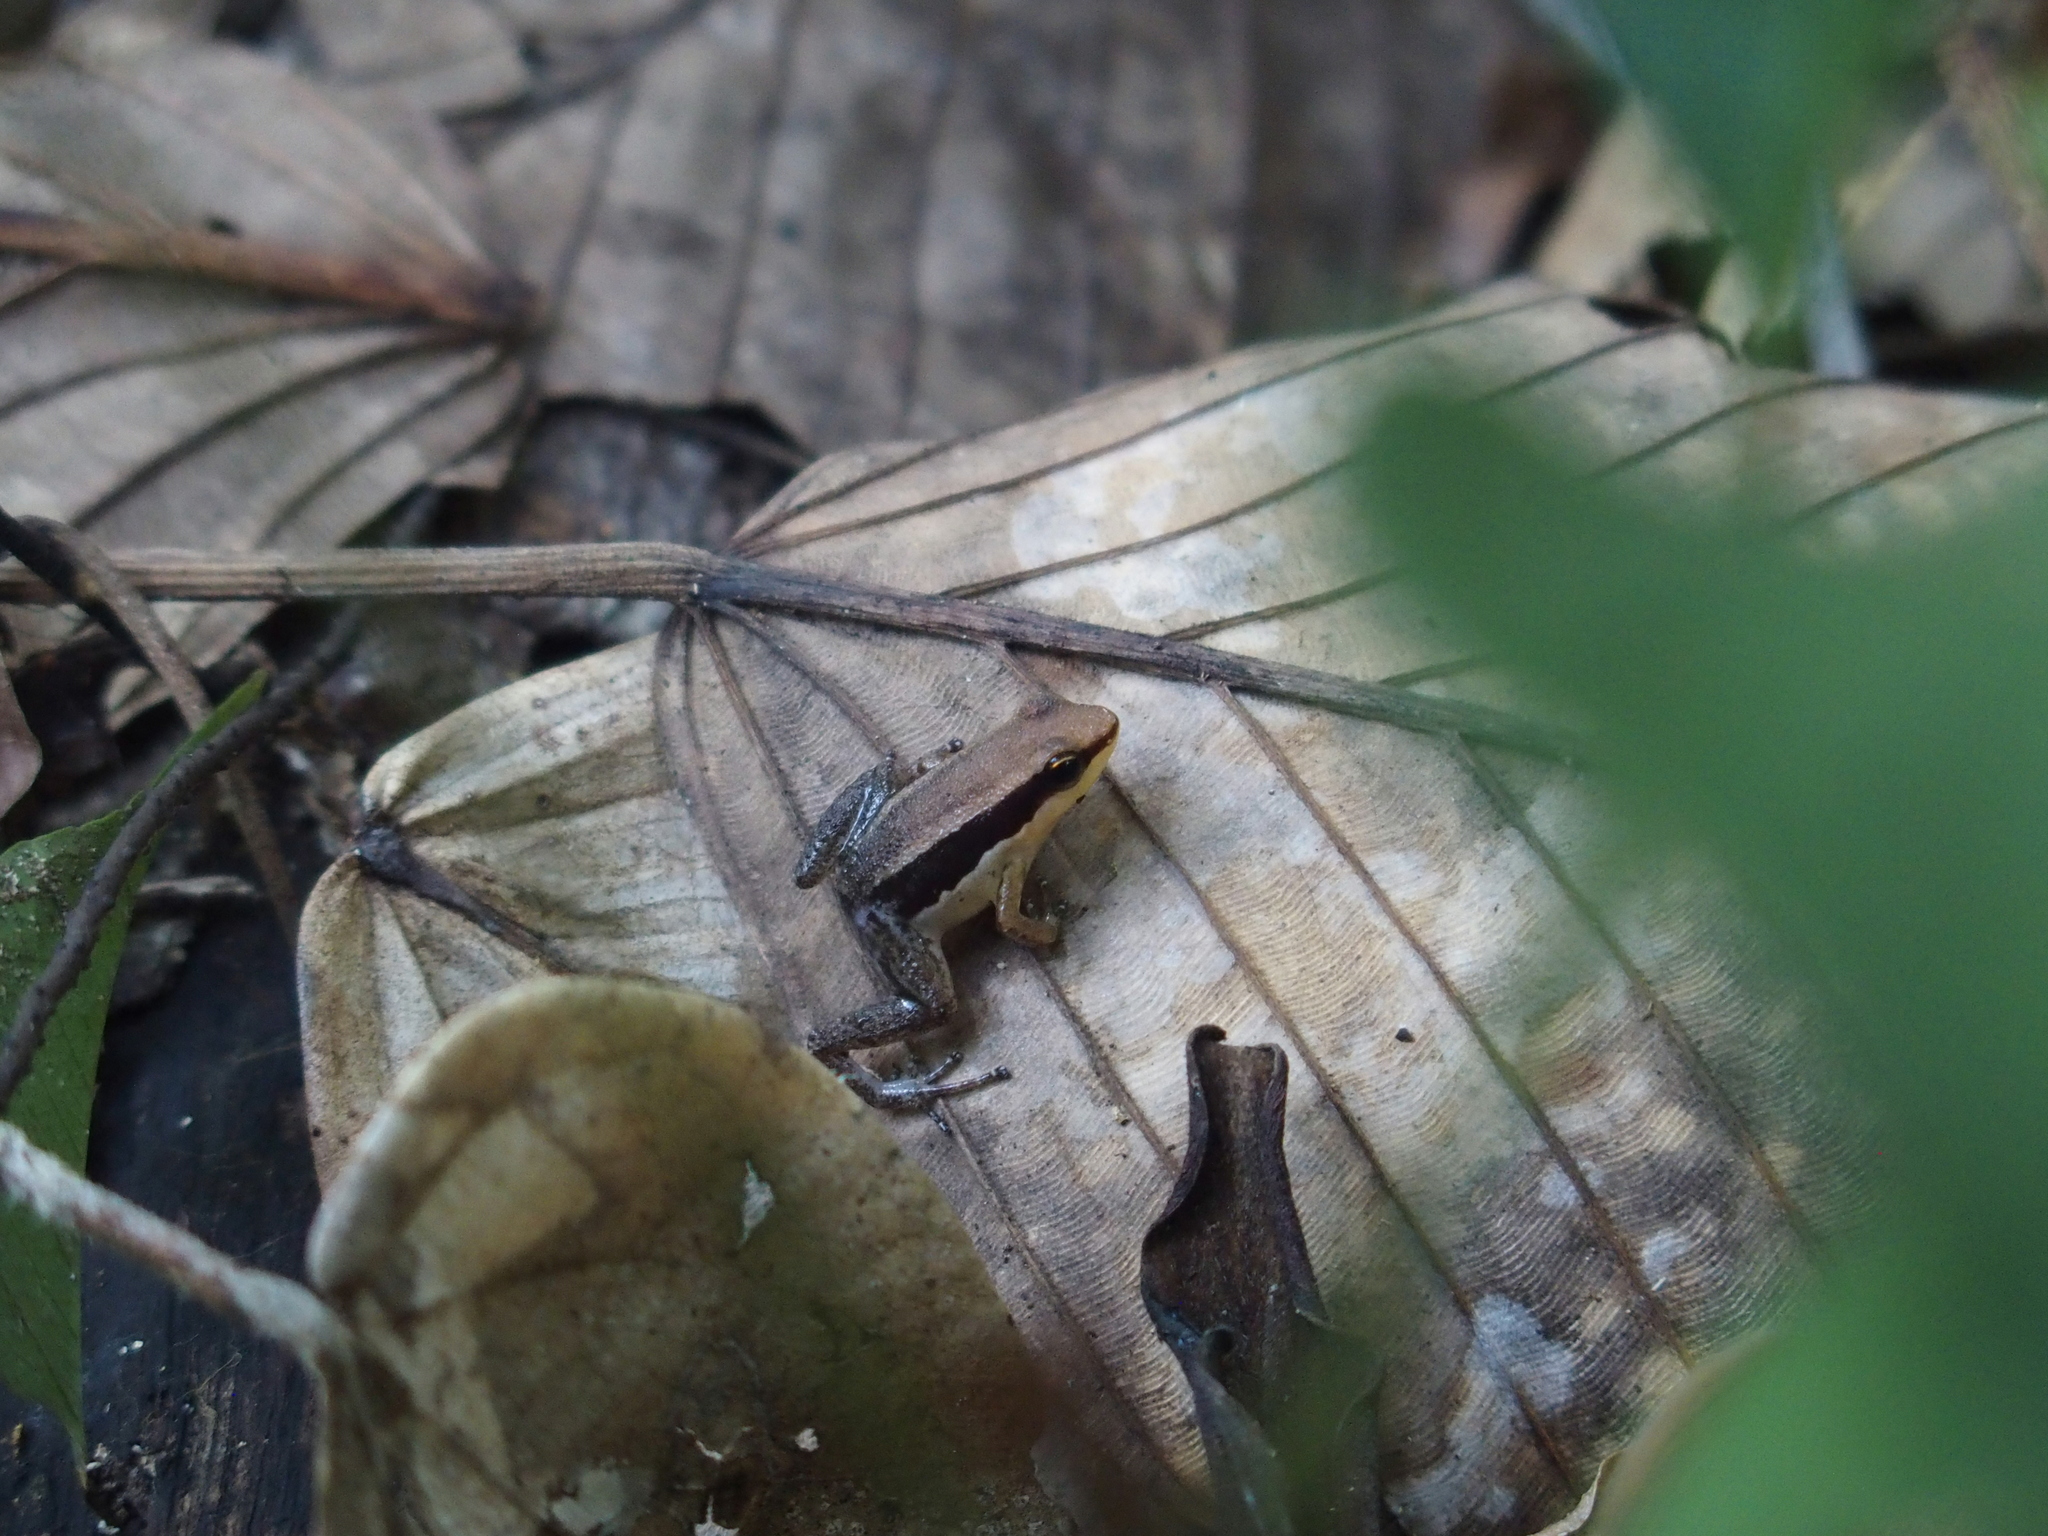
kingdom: Animalia
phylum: Chordata
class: Amphibia
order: Anura
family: Aromobatidae
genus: Allobates
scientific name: Allobates conspicuus
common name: Manu rocket frog
